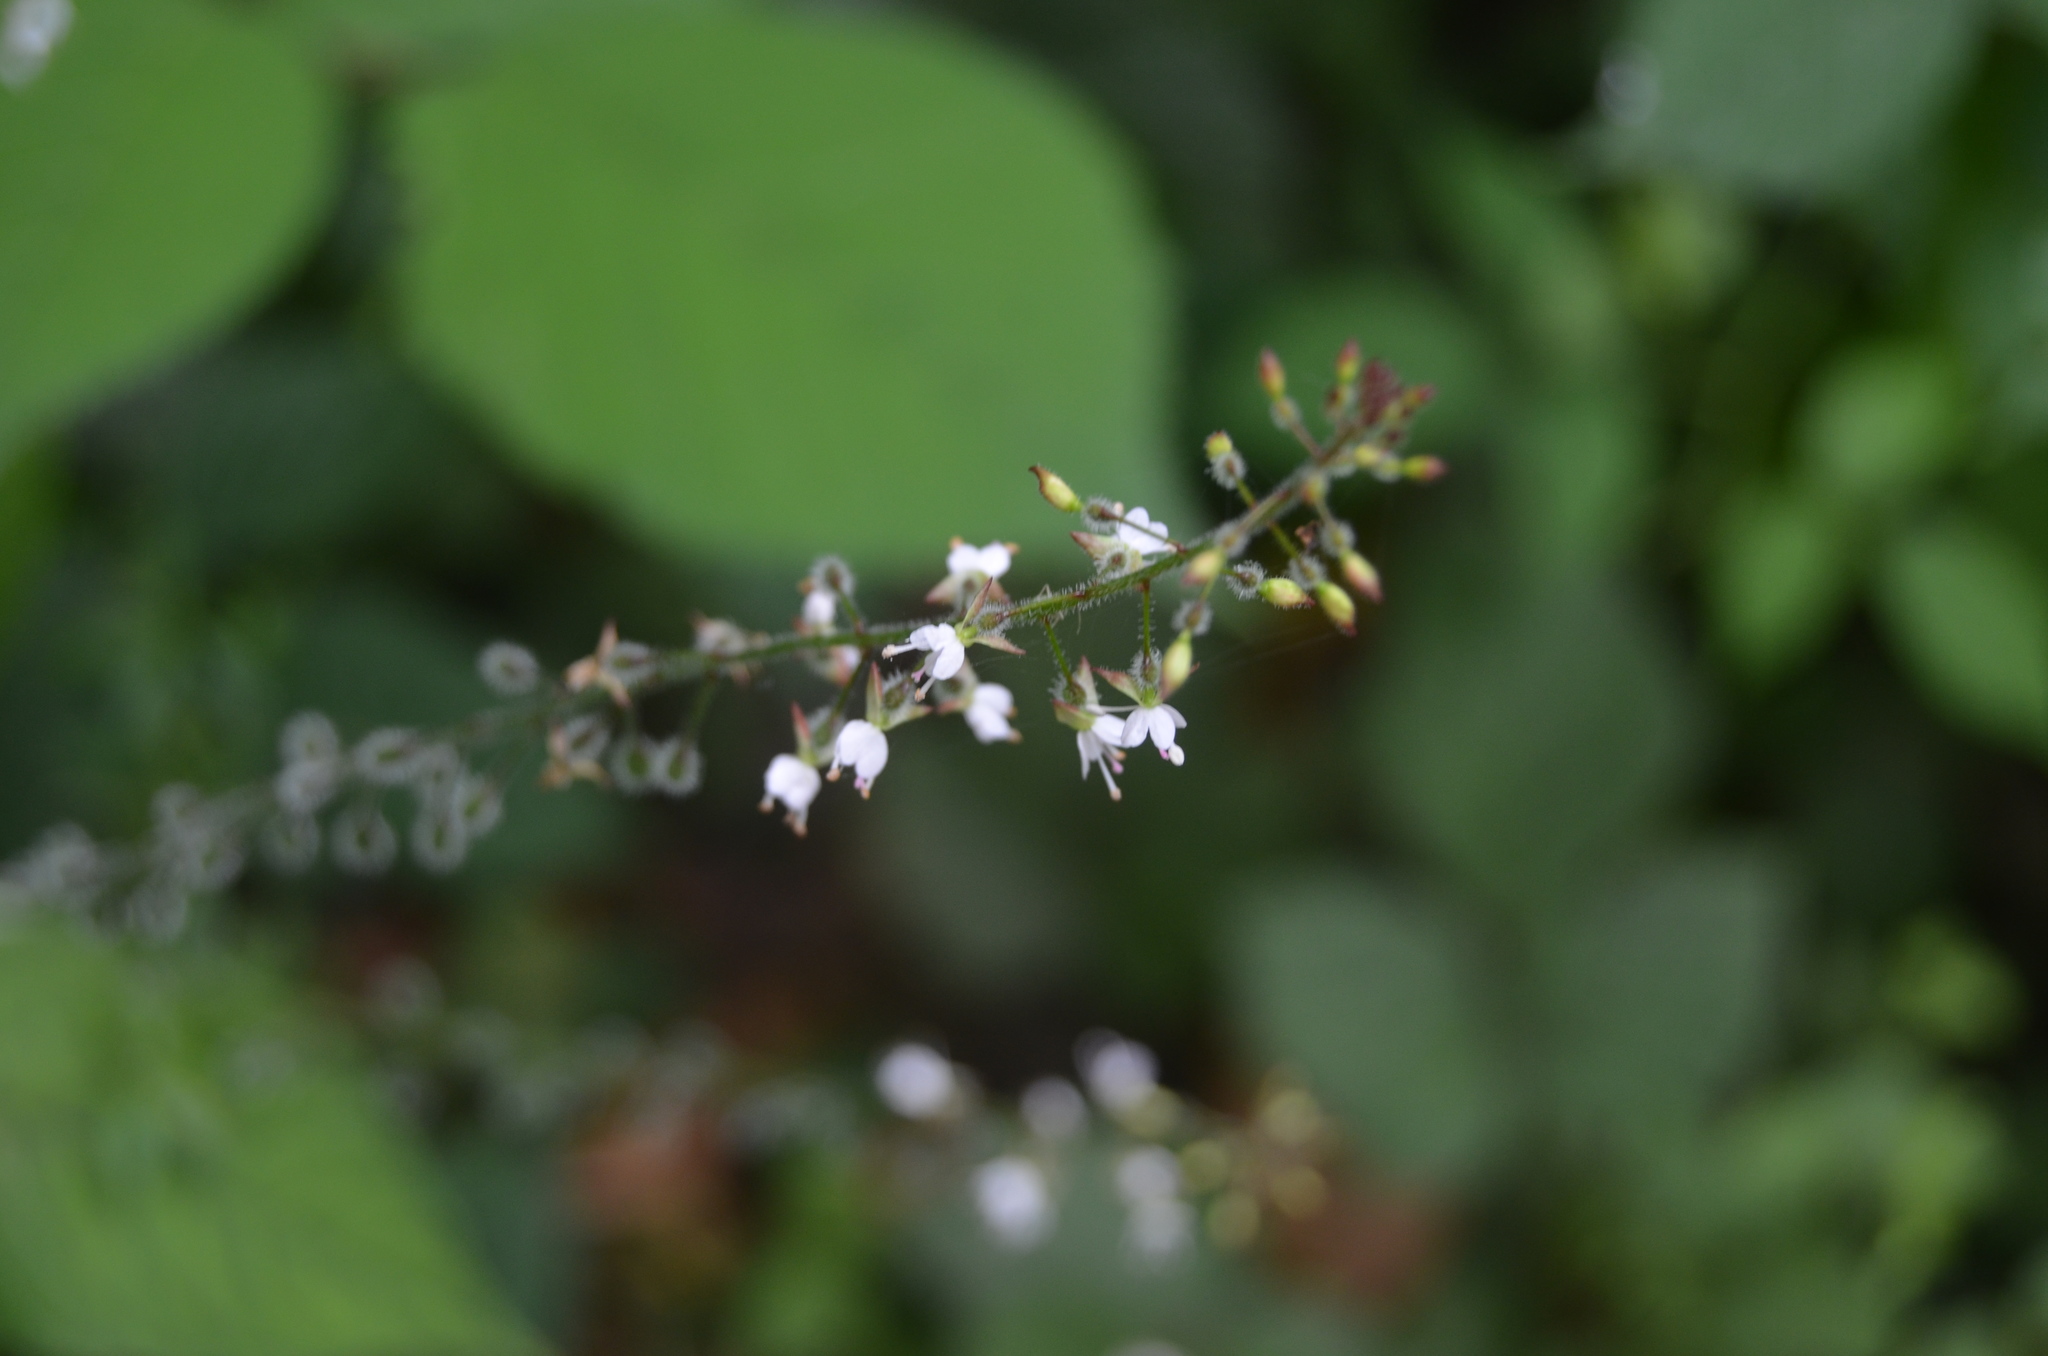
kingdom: Plantae
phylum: Tracheophyta
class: Magnoliopsida
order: Myrtales
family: Onagraceae
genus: Circaea
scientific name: Circaea lutetiana
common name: Enchanter's-nightshade
